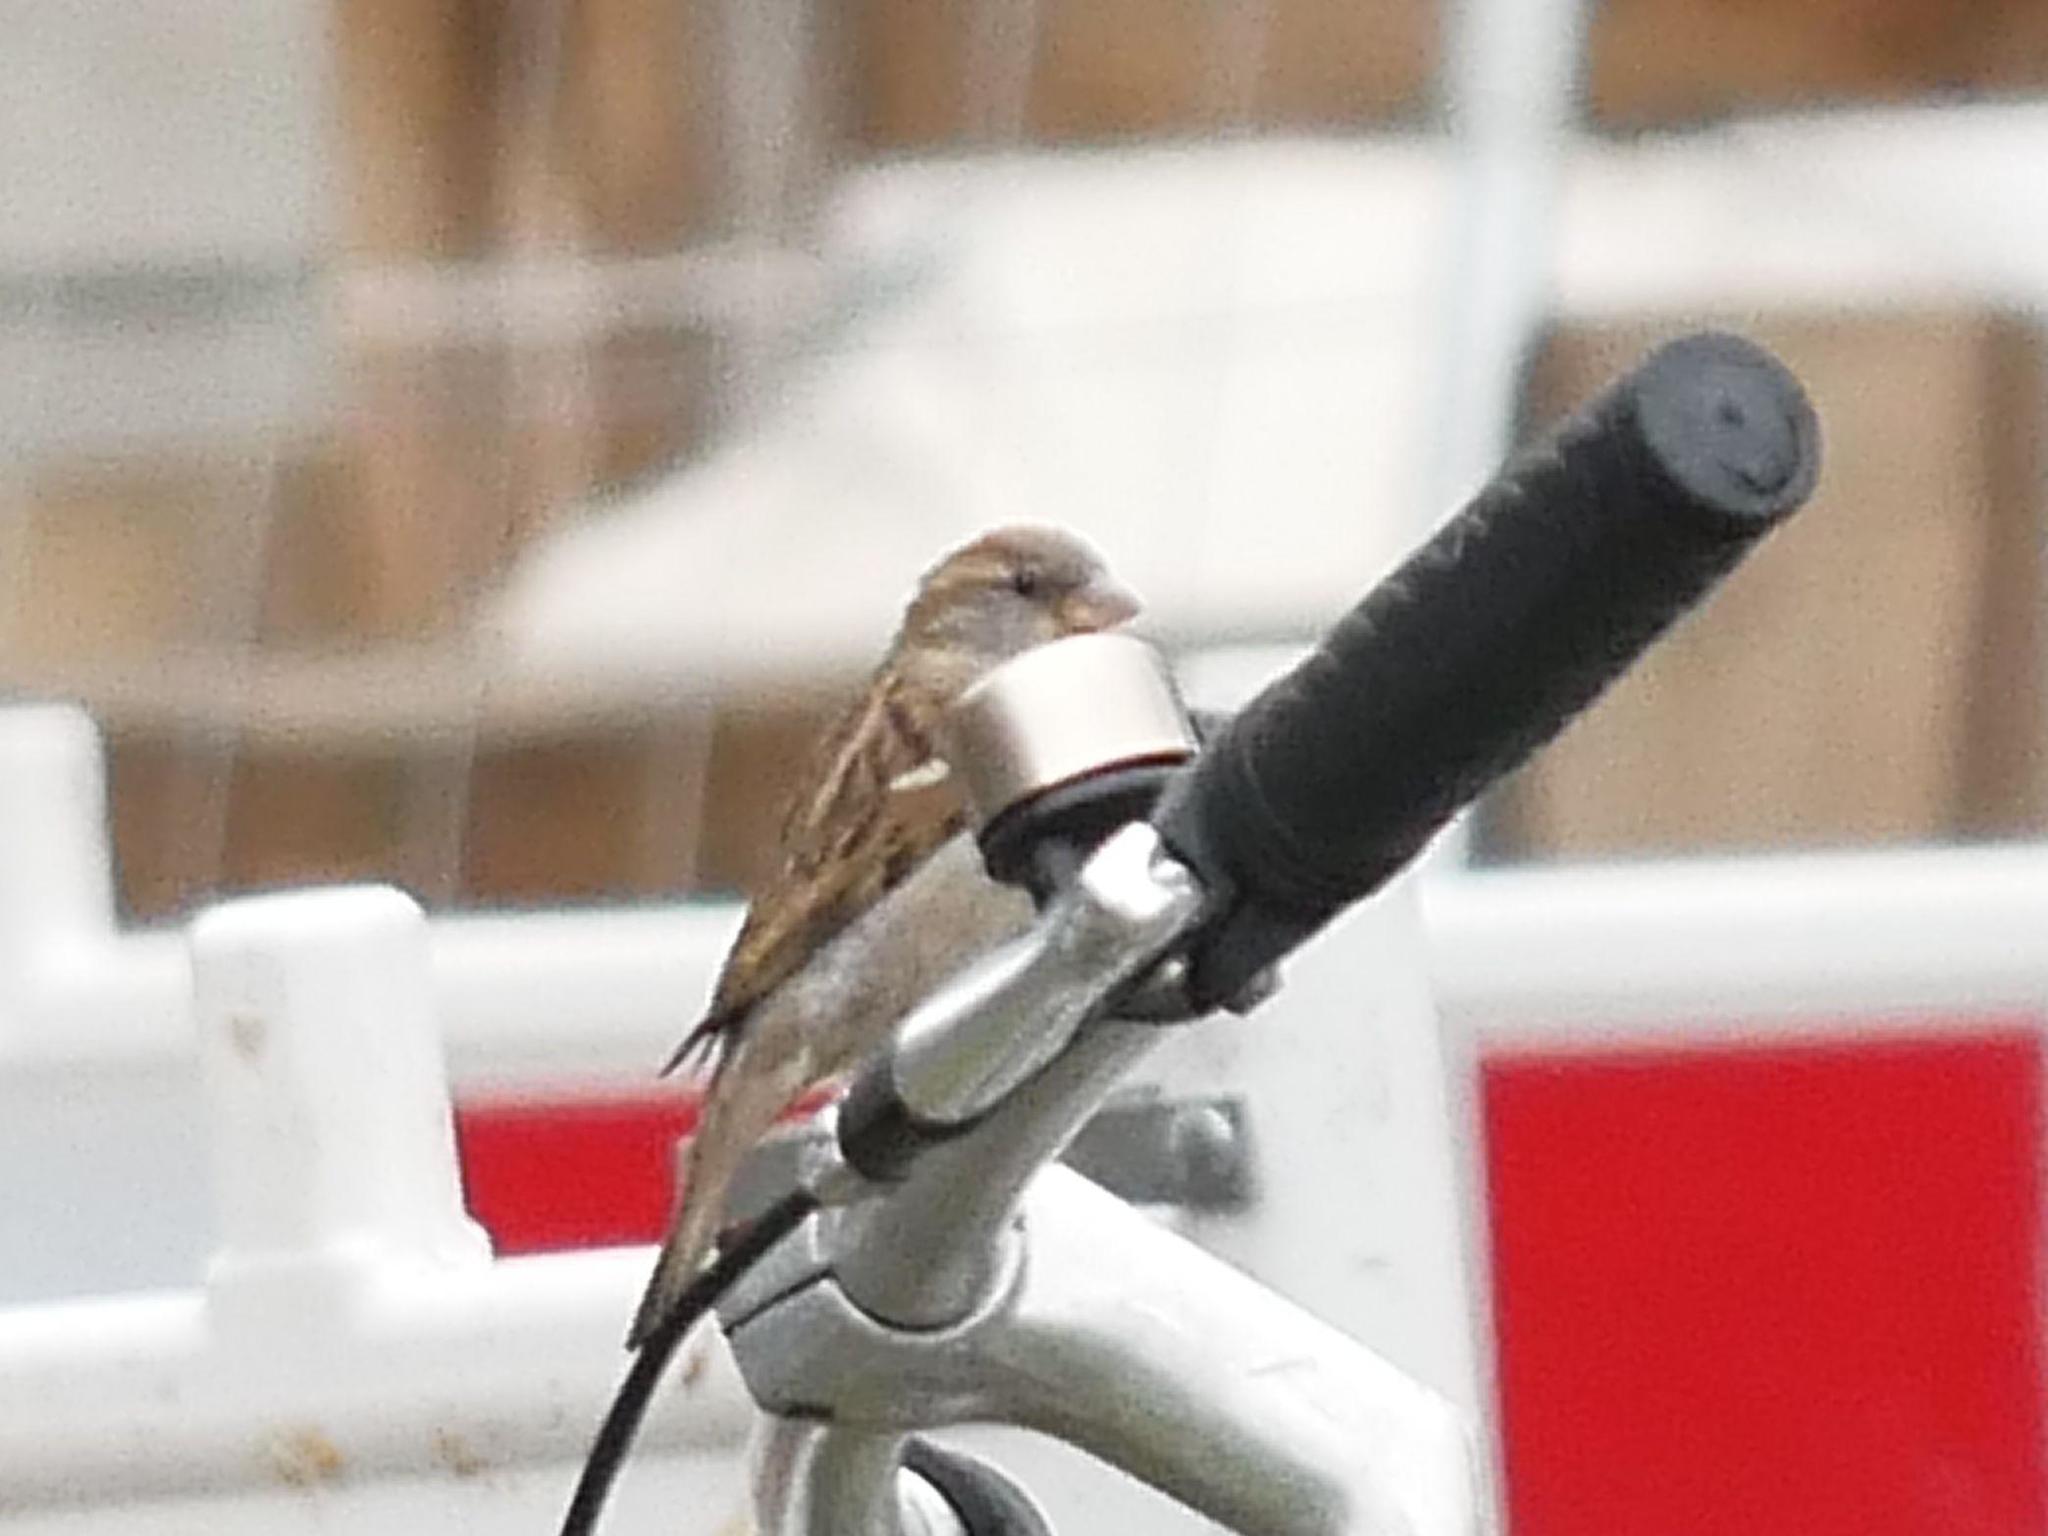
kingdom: Animalia
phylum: Chordata
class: Aves
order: Passeriformes
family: Passeridae
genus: Passer
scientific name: Passer domesticus
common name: House sparrow
